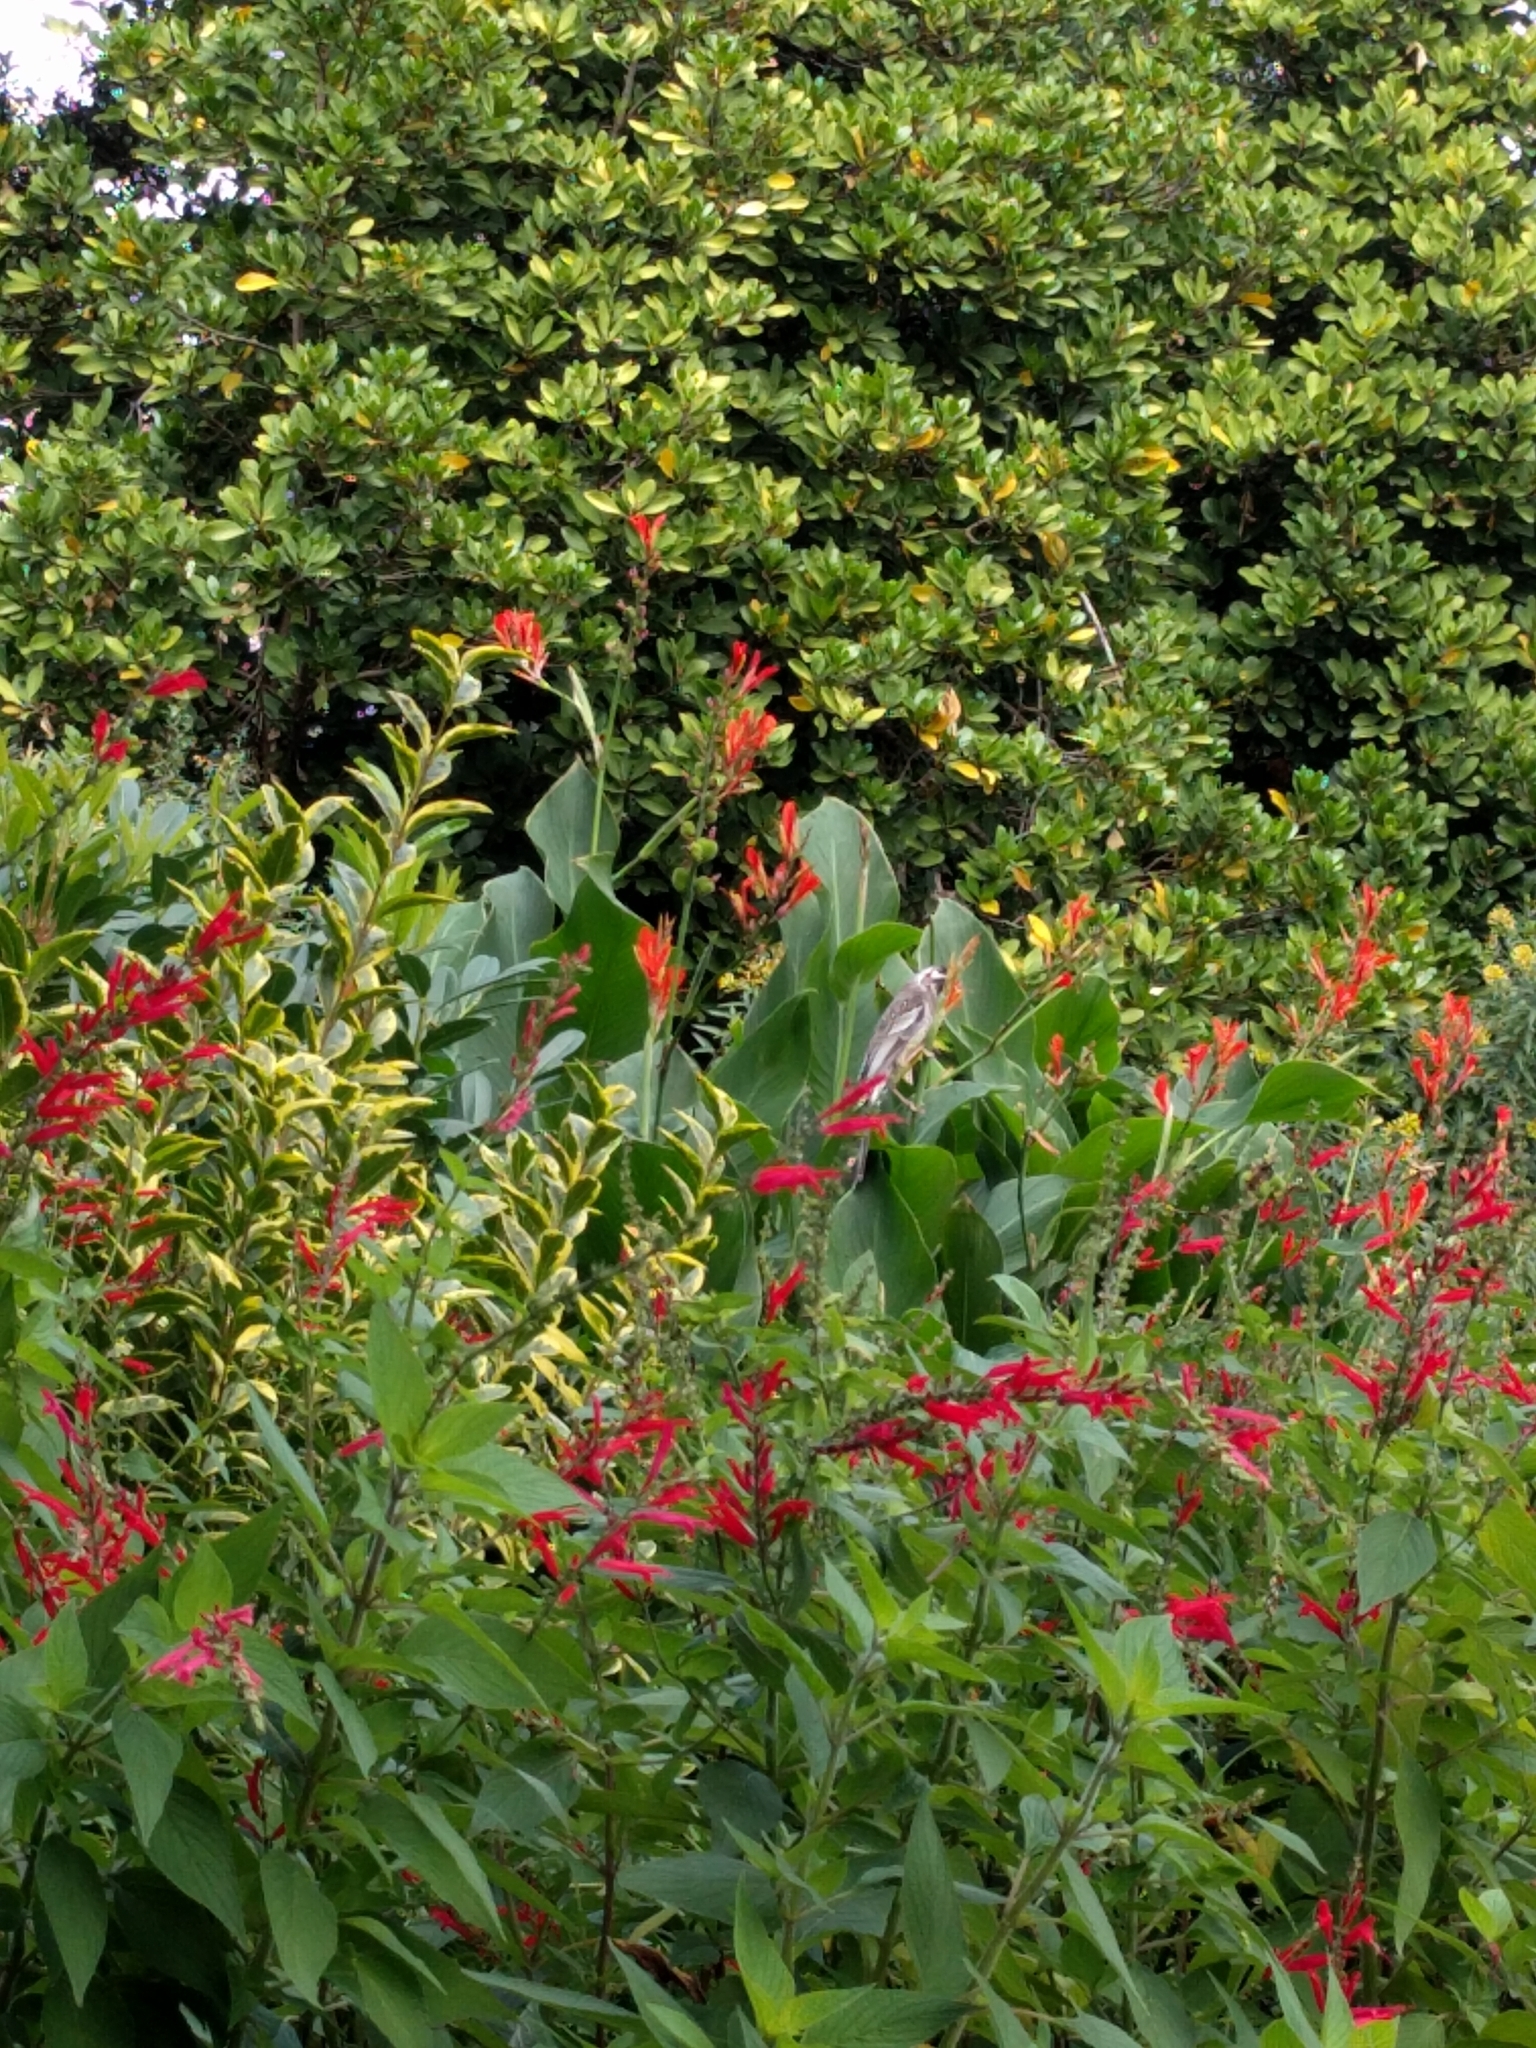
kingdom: Animalia
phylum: Chordata
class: Aves
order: Passeriformes
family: Meliphagidae
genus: Anthochaera
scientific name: Anthochaera carunculata
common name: Red wattlebird
